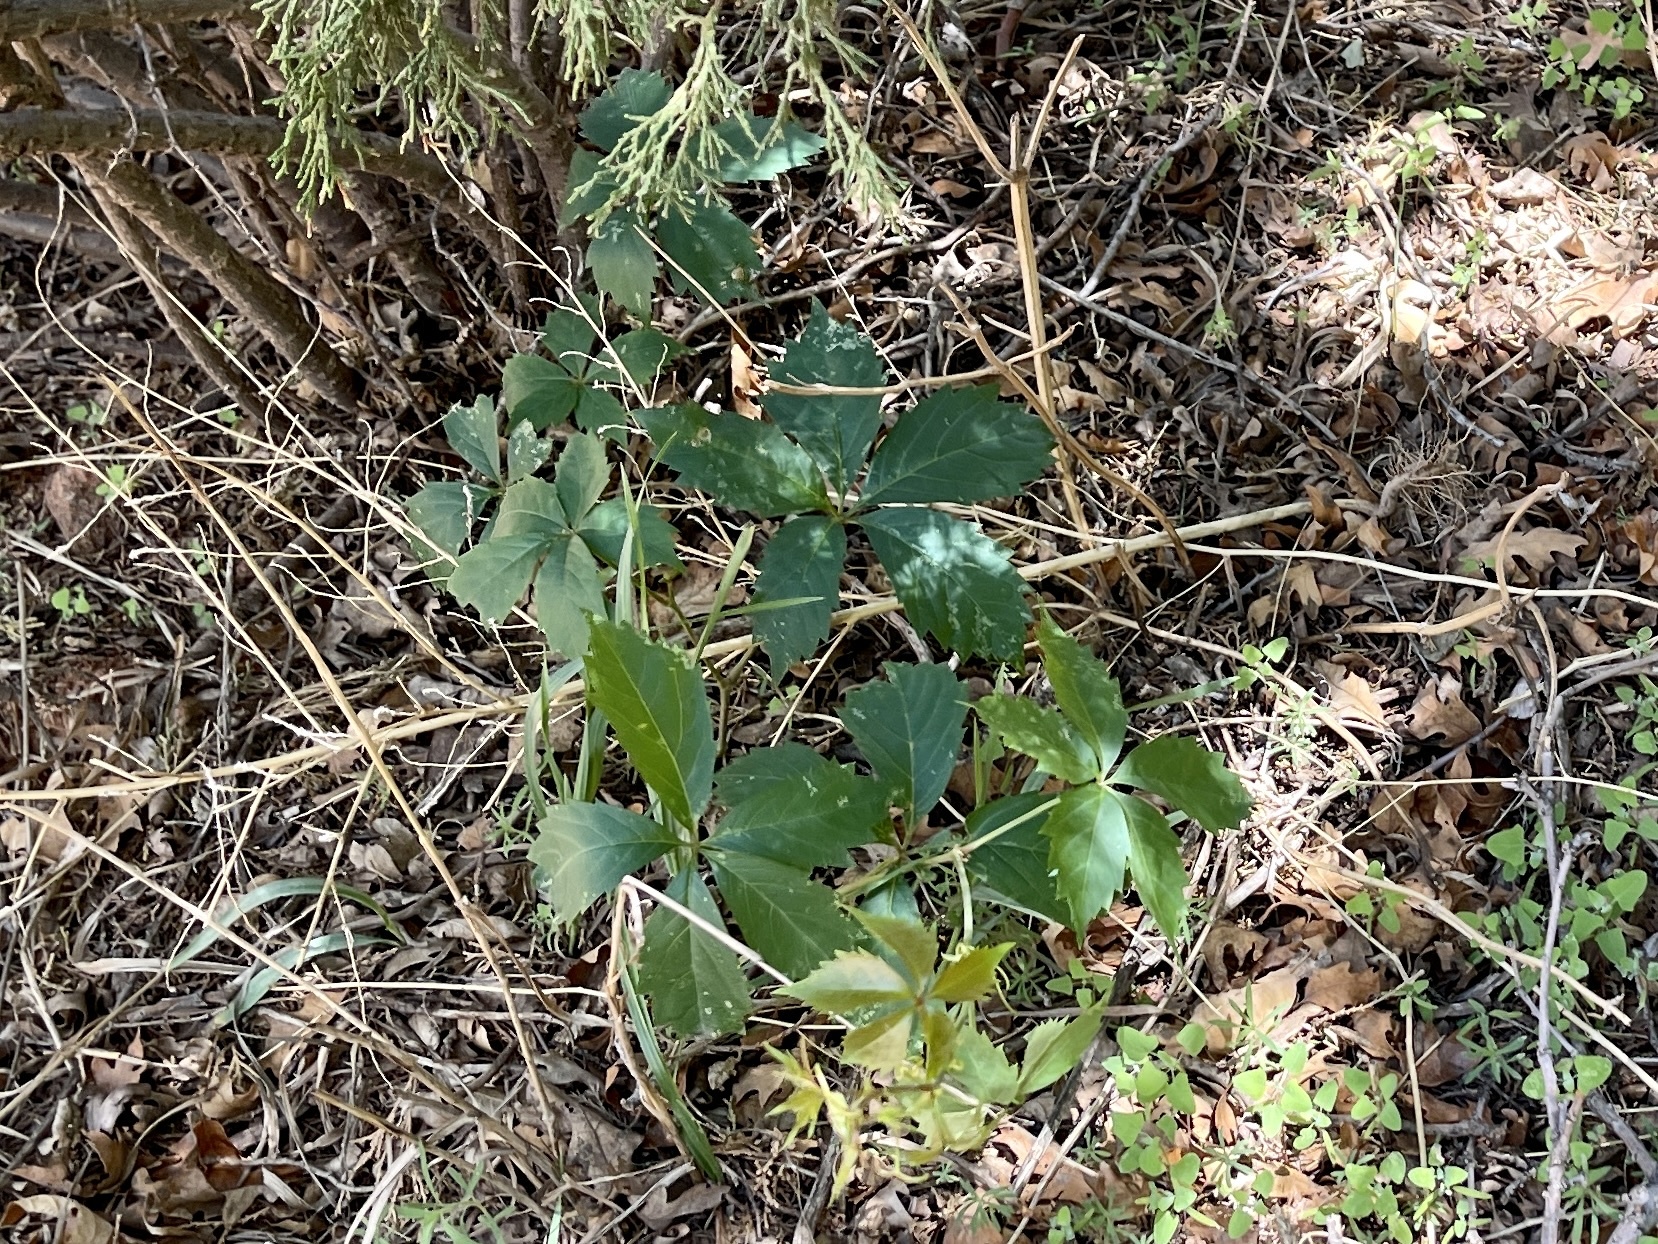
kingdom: Plantae
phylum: Tracheophyta
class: Magnoliopsida
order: Vitales
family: Vitaceae
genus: Parthenocissus
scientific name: Parthenocissus quinquefolia
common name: Virginia-creeper
